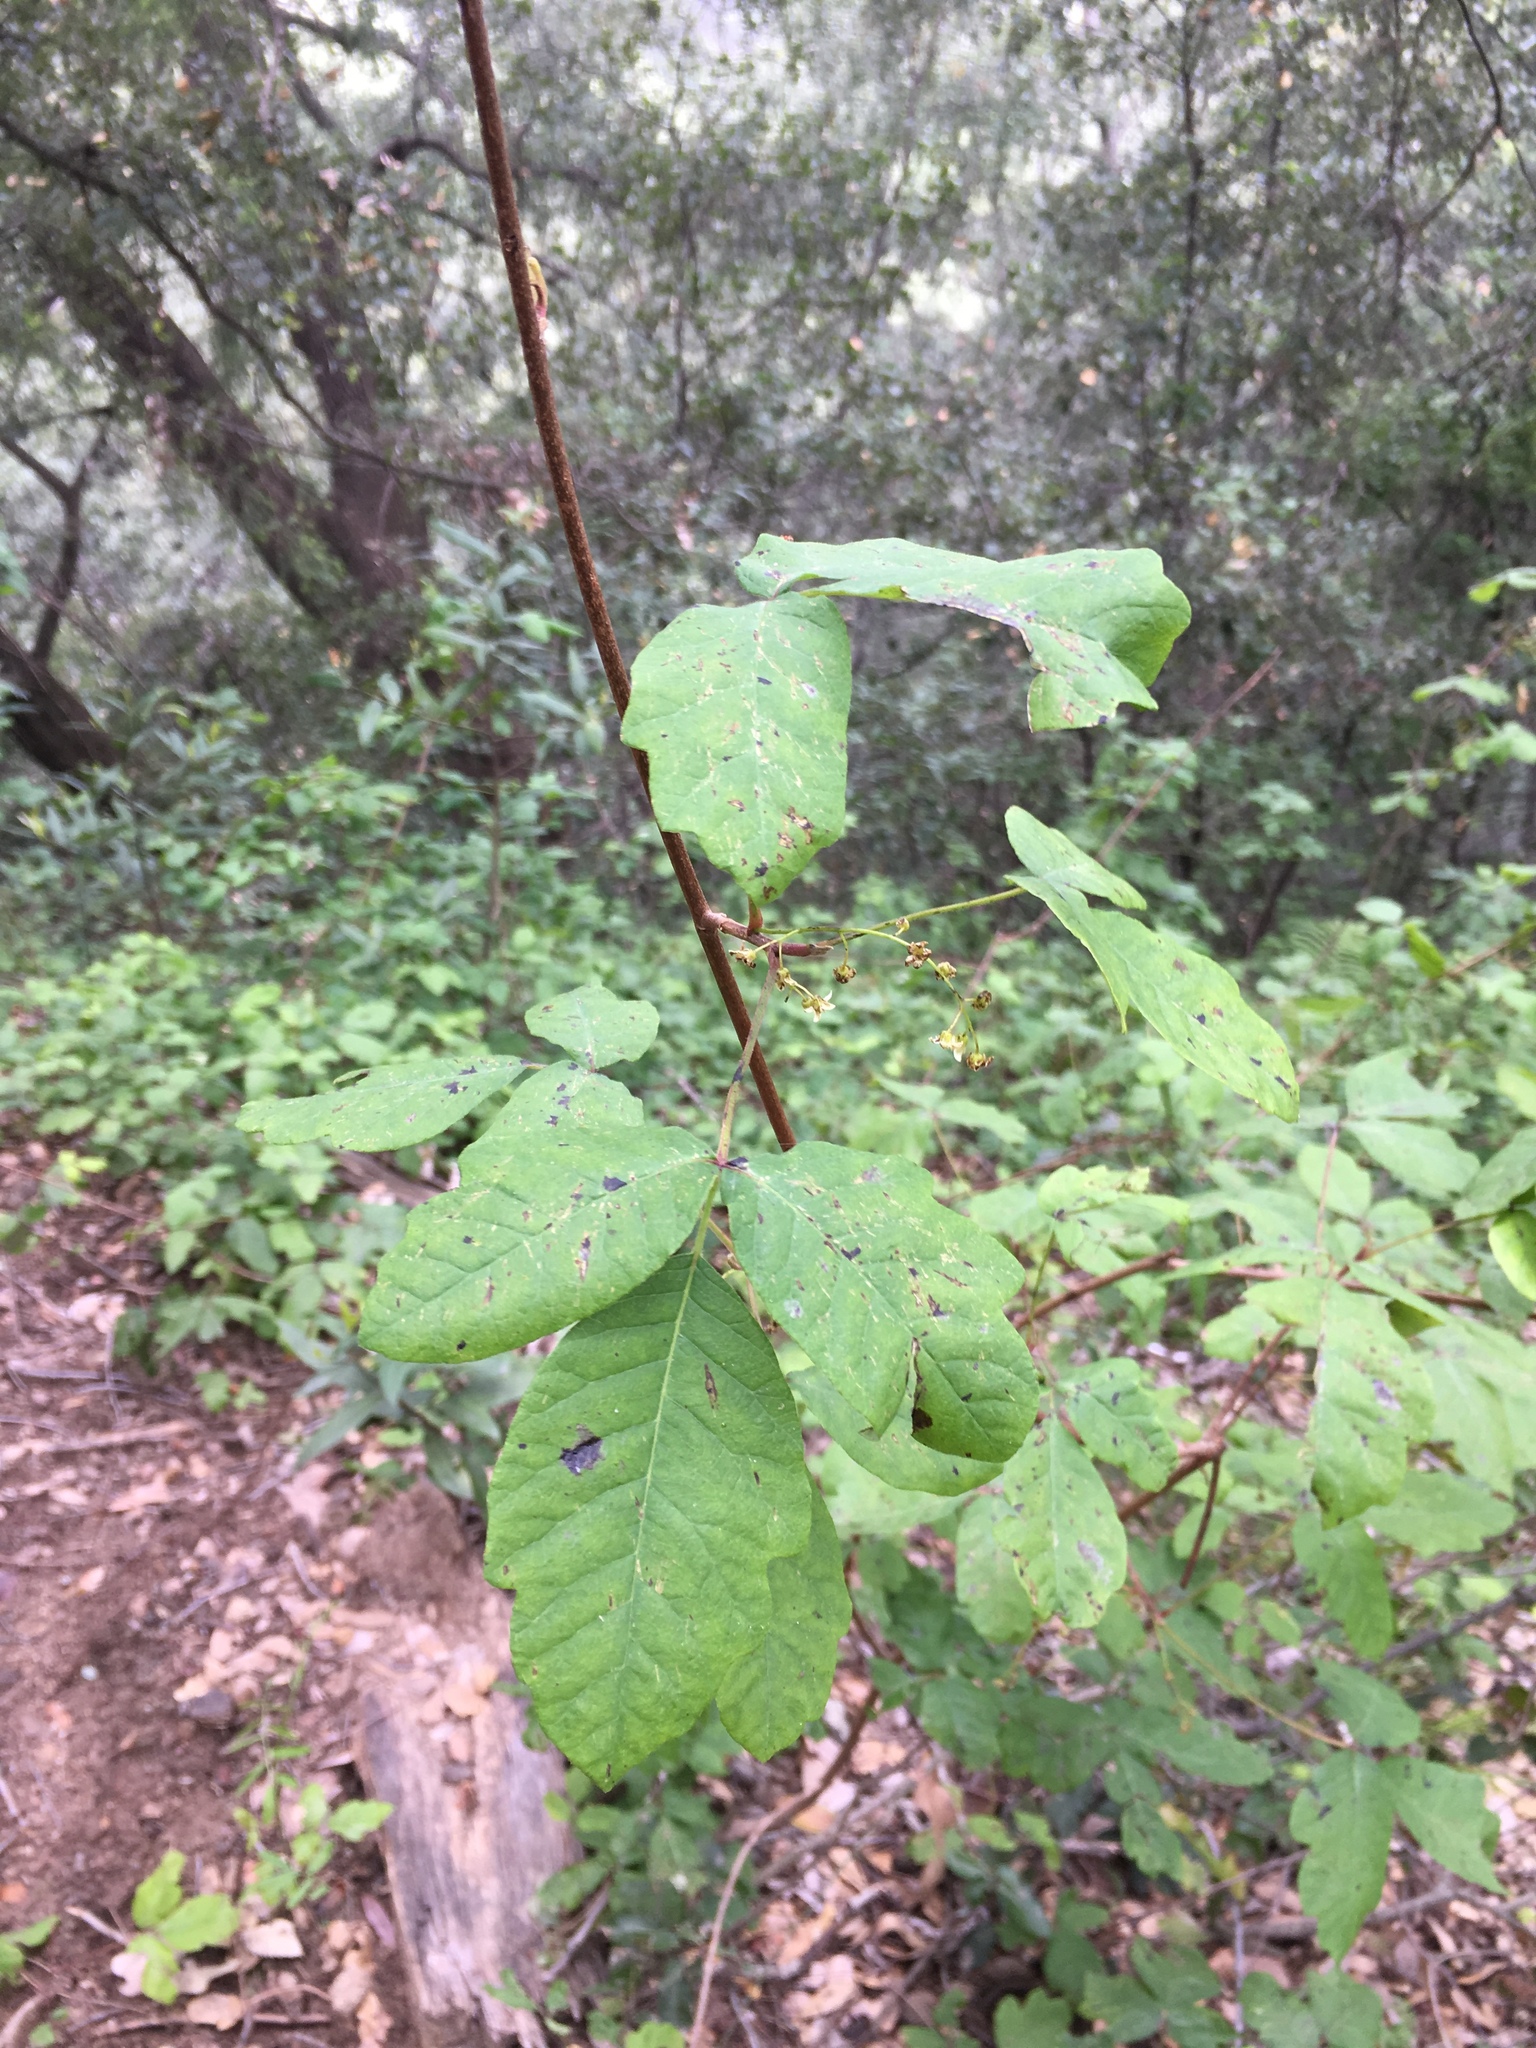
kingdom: Plantae
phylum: Tracheophyta
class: Magnoliopsida
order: Sapindales
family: Anacardiaceae
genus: Toxicodendron
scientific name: Toxicodendron diversilobum
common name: Pacific poison-oak
